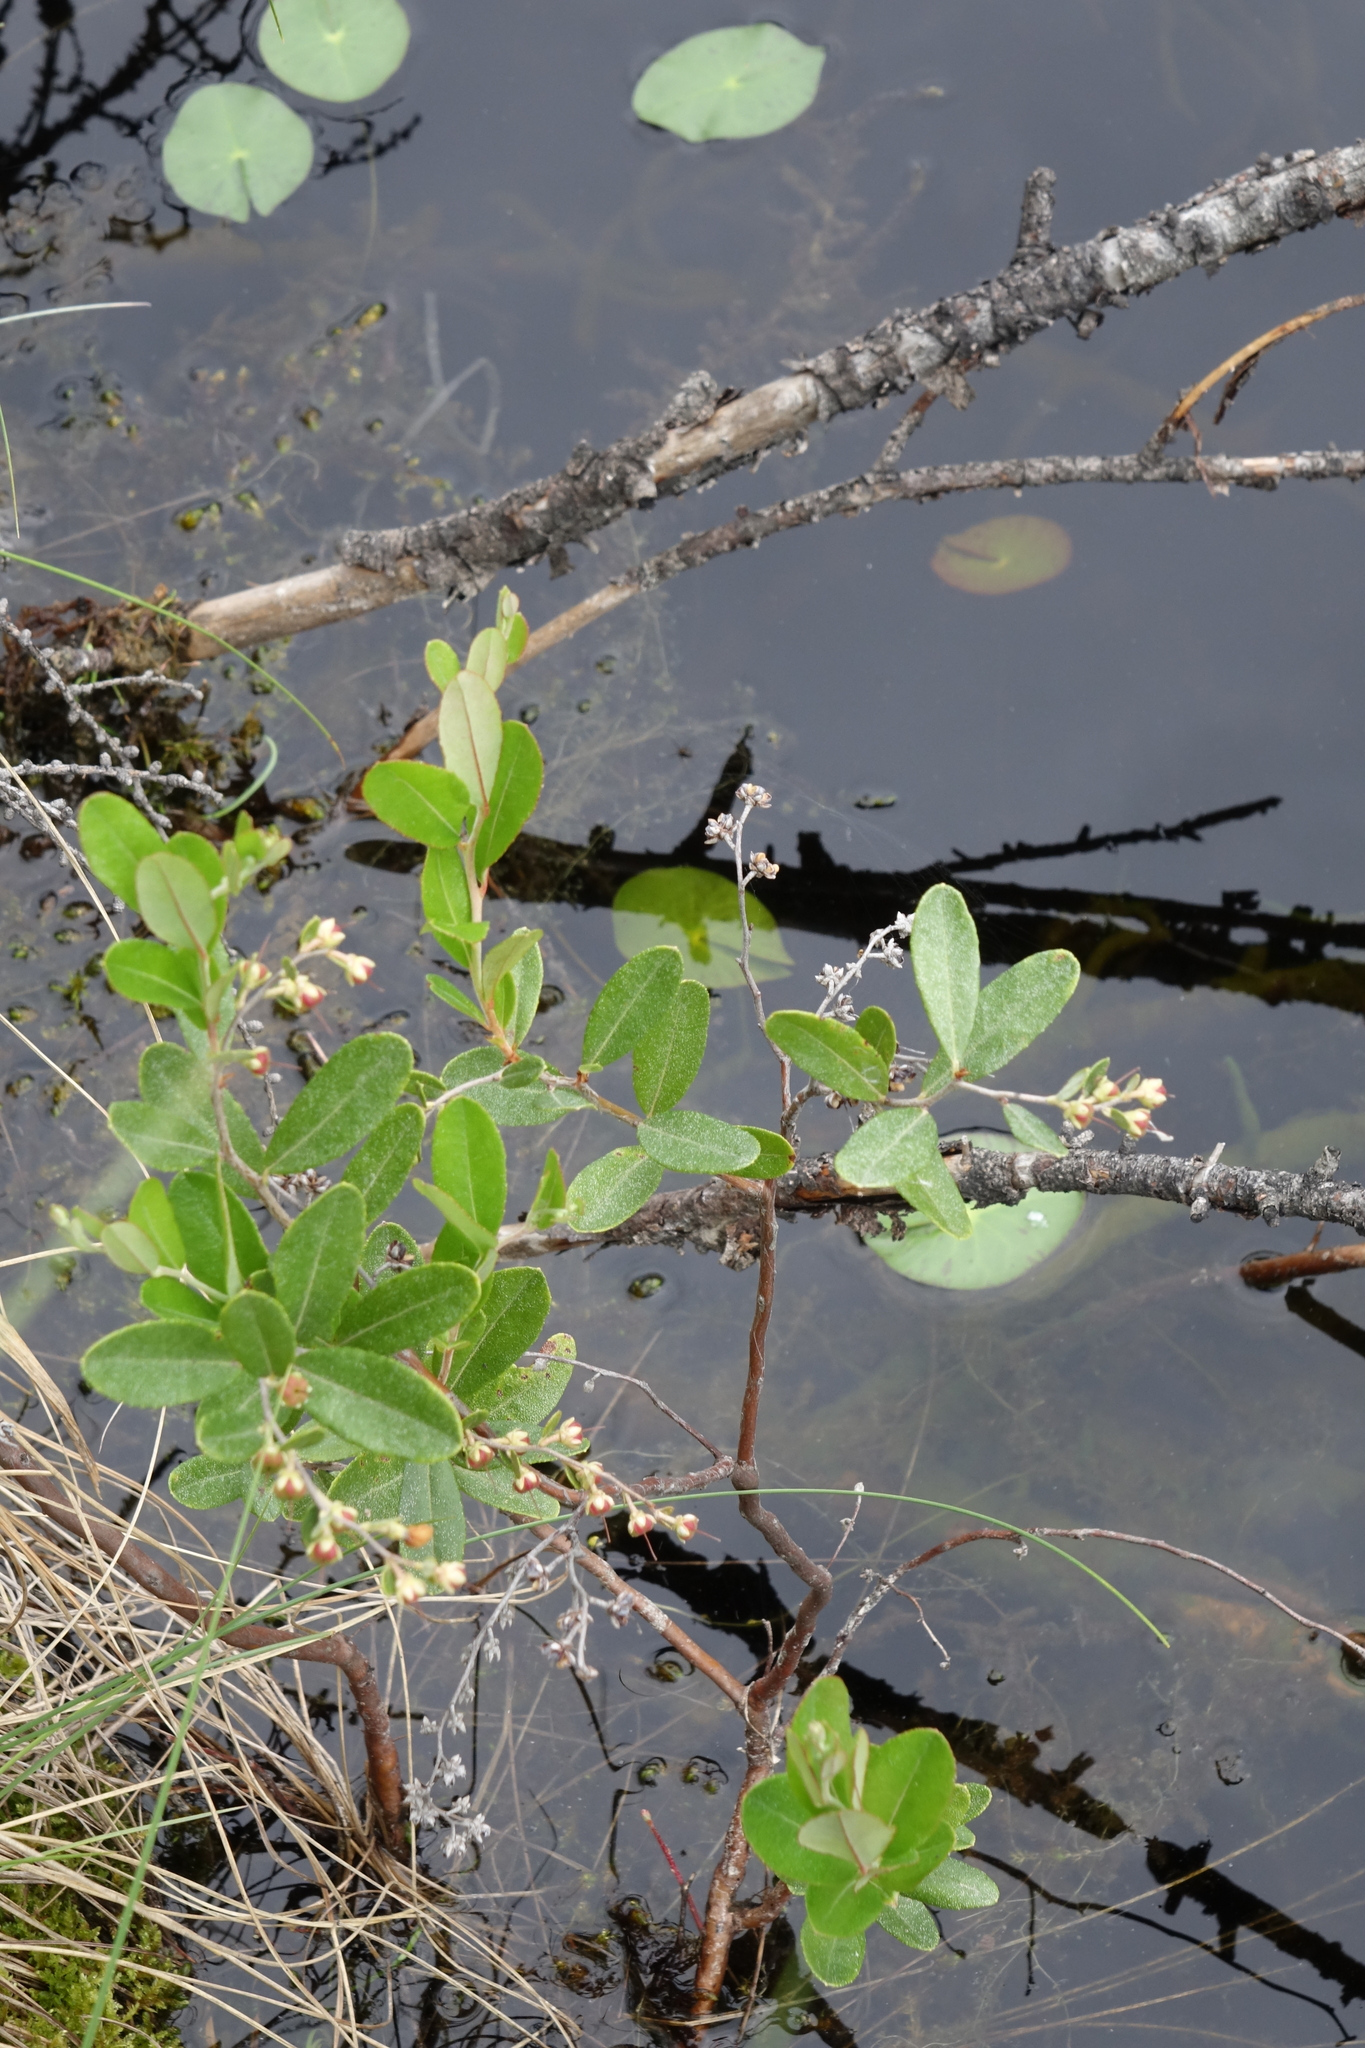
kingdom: Plantae
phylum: Tracheophyta
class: Magnoliopsida
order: Ericales
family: Ericaceae
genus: Chamaedaphne
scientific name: Chamaedaphne calyculata
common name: Leatherleaf
